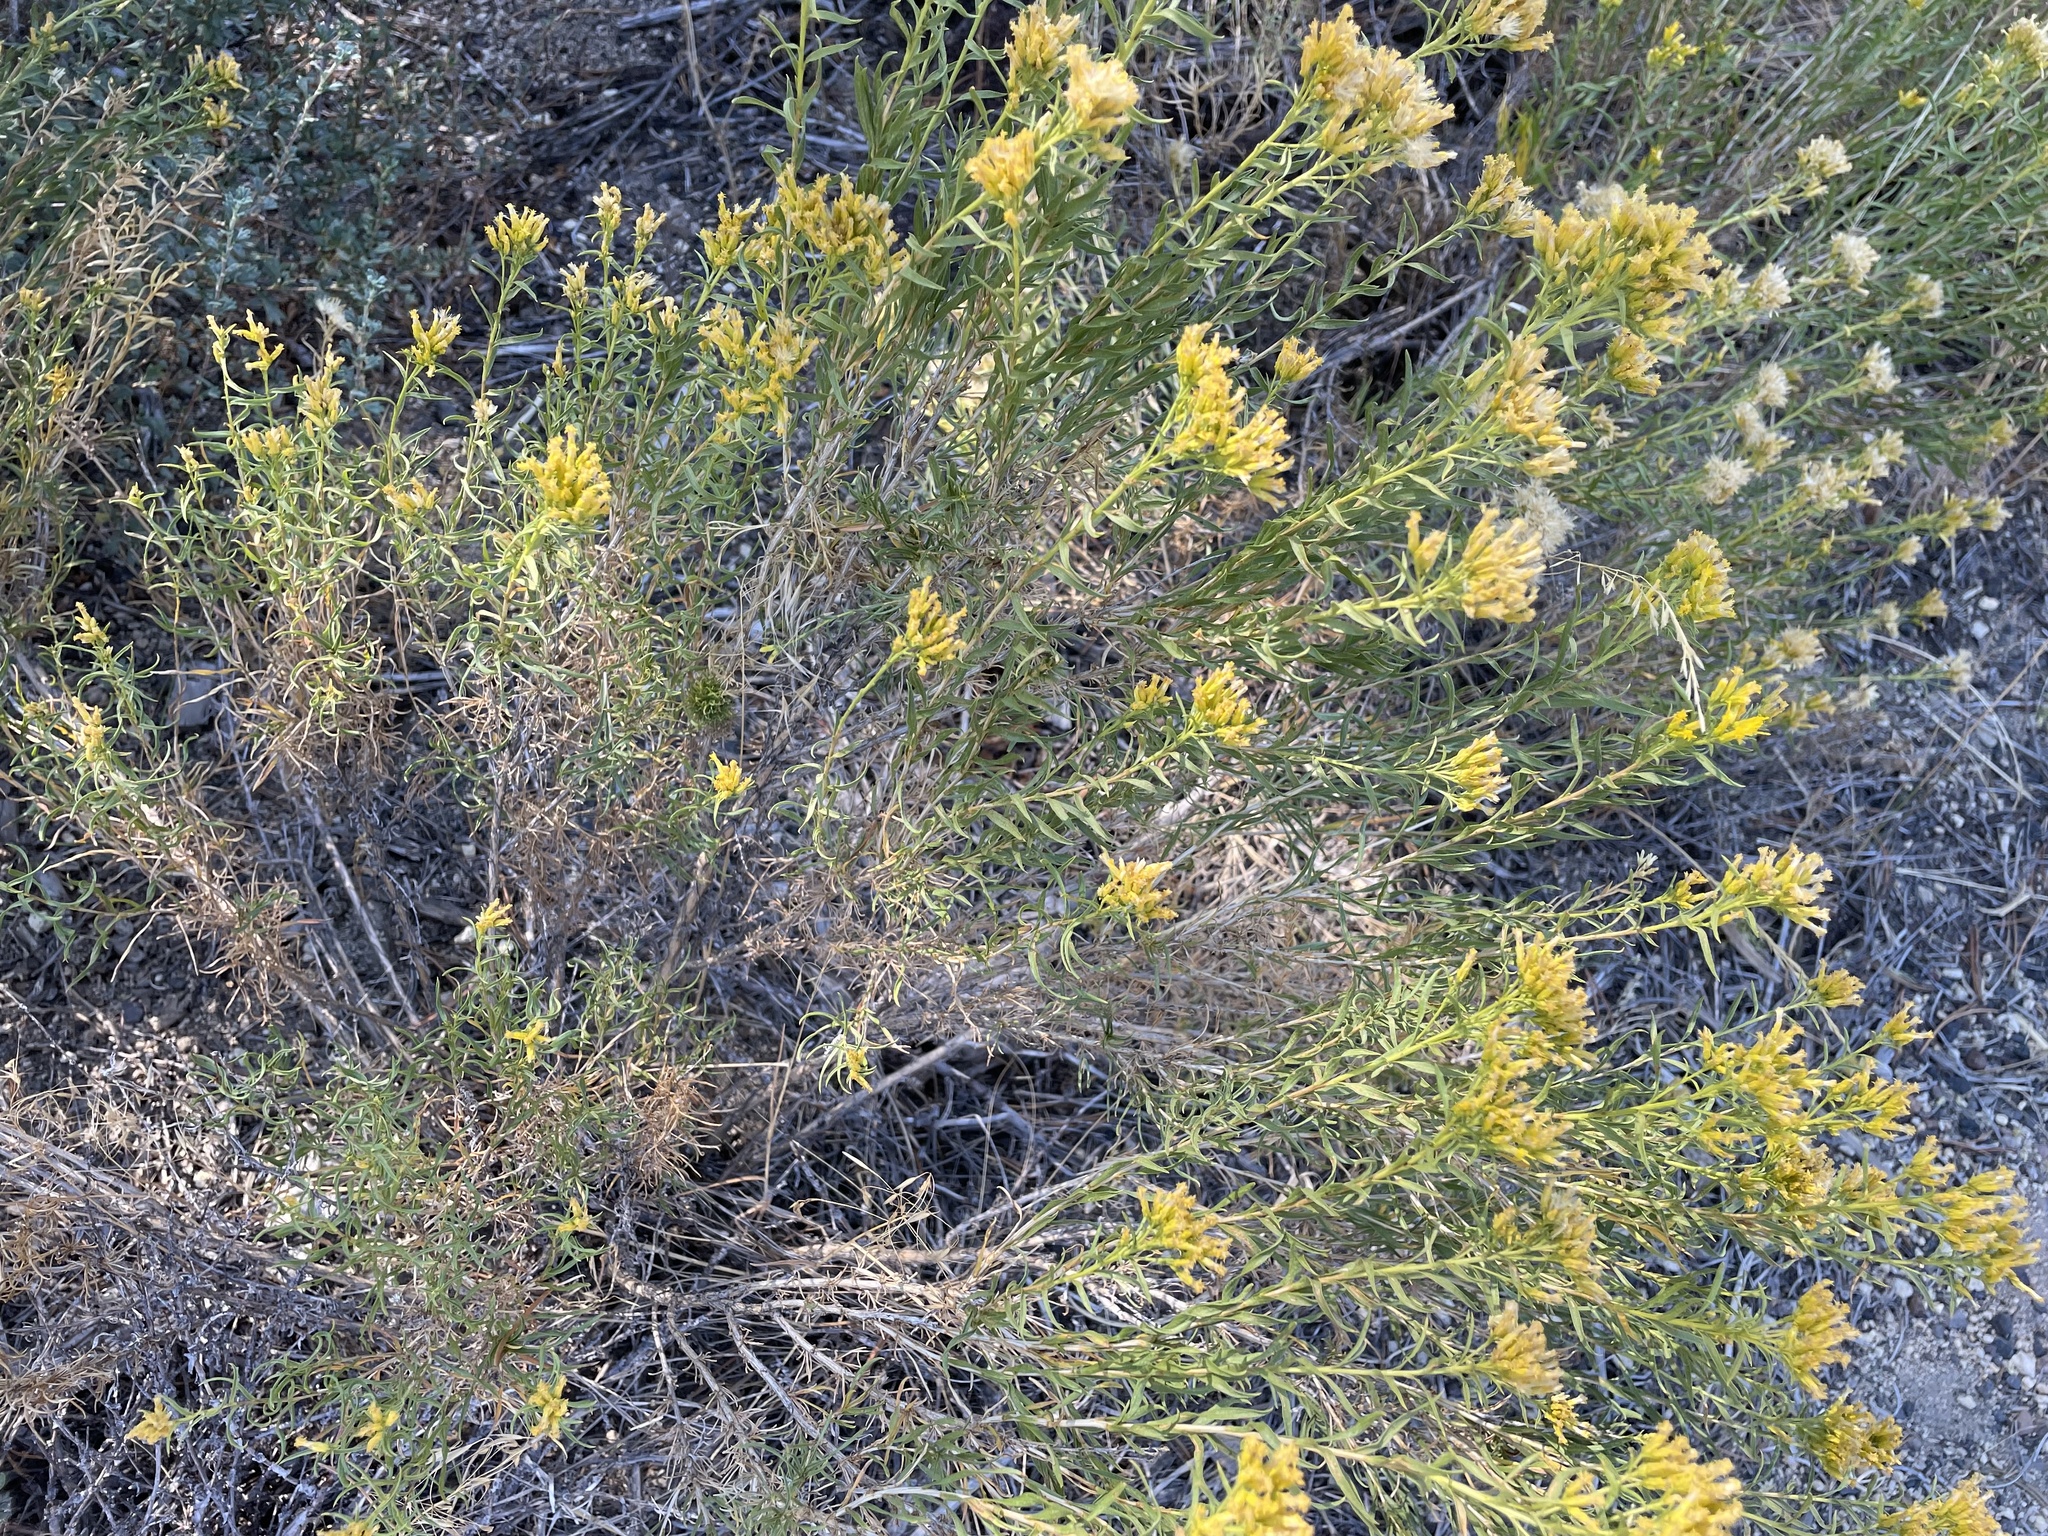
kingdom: Animalia
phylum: Arthropoda
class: Insecta
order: Diptera
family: Tephritidae
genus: Aciurina
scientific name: Aciurina semilucida
